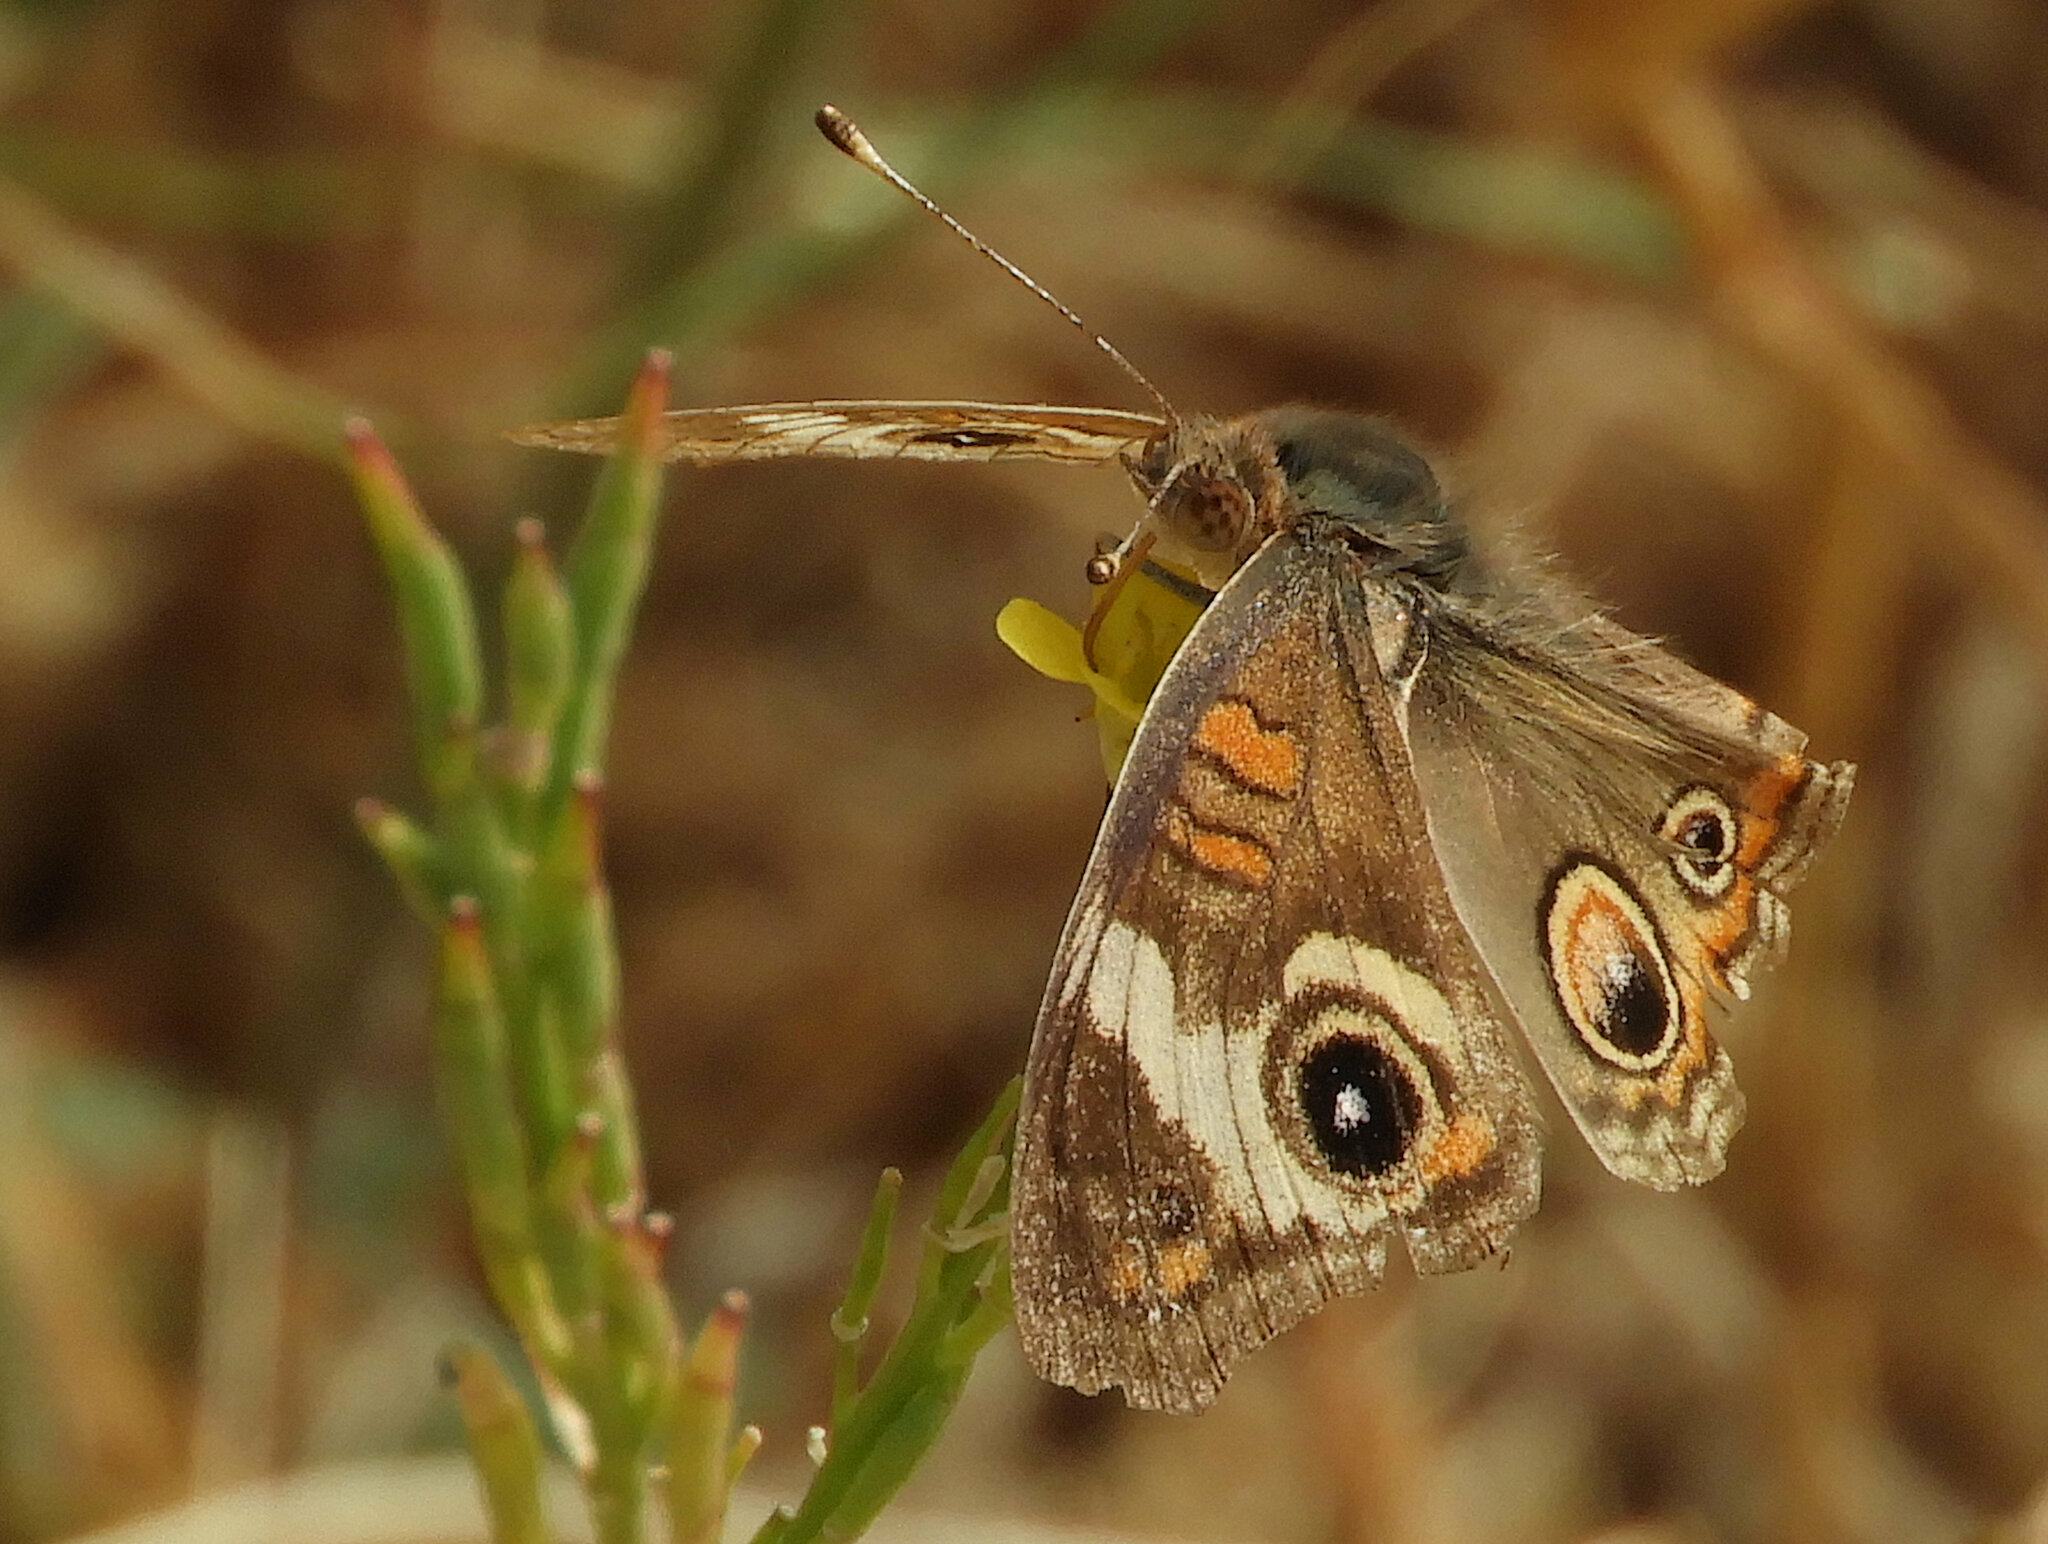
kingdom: Animalia
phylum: Arthropoda
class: Insecta
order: Lepidoptera
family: Nymphalidae
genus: Junonia
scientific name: Junonia grisea
